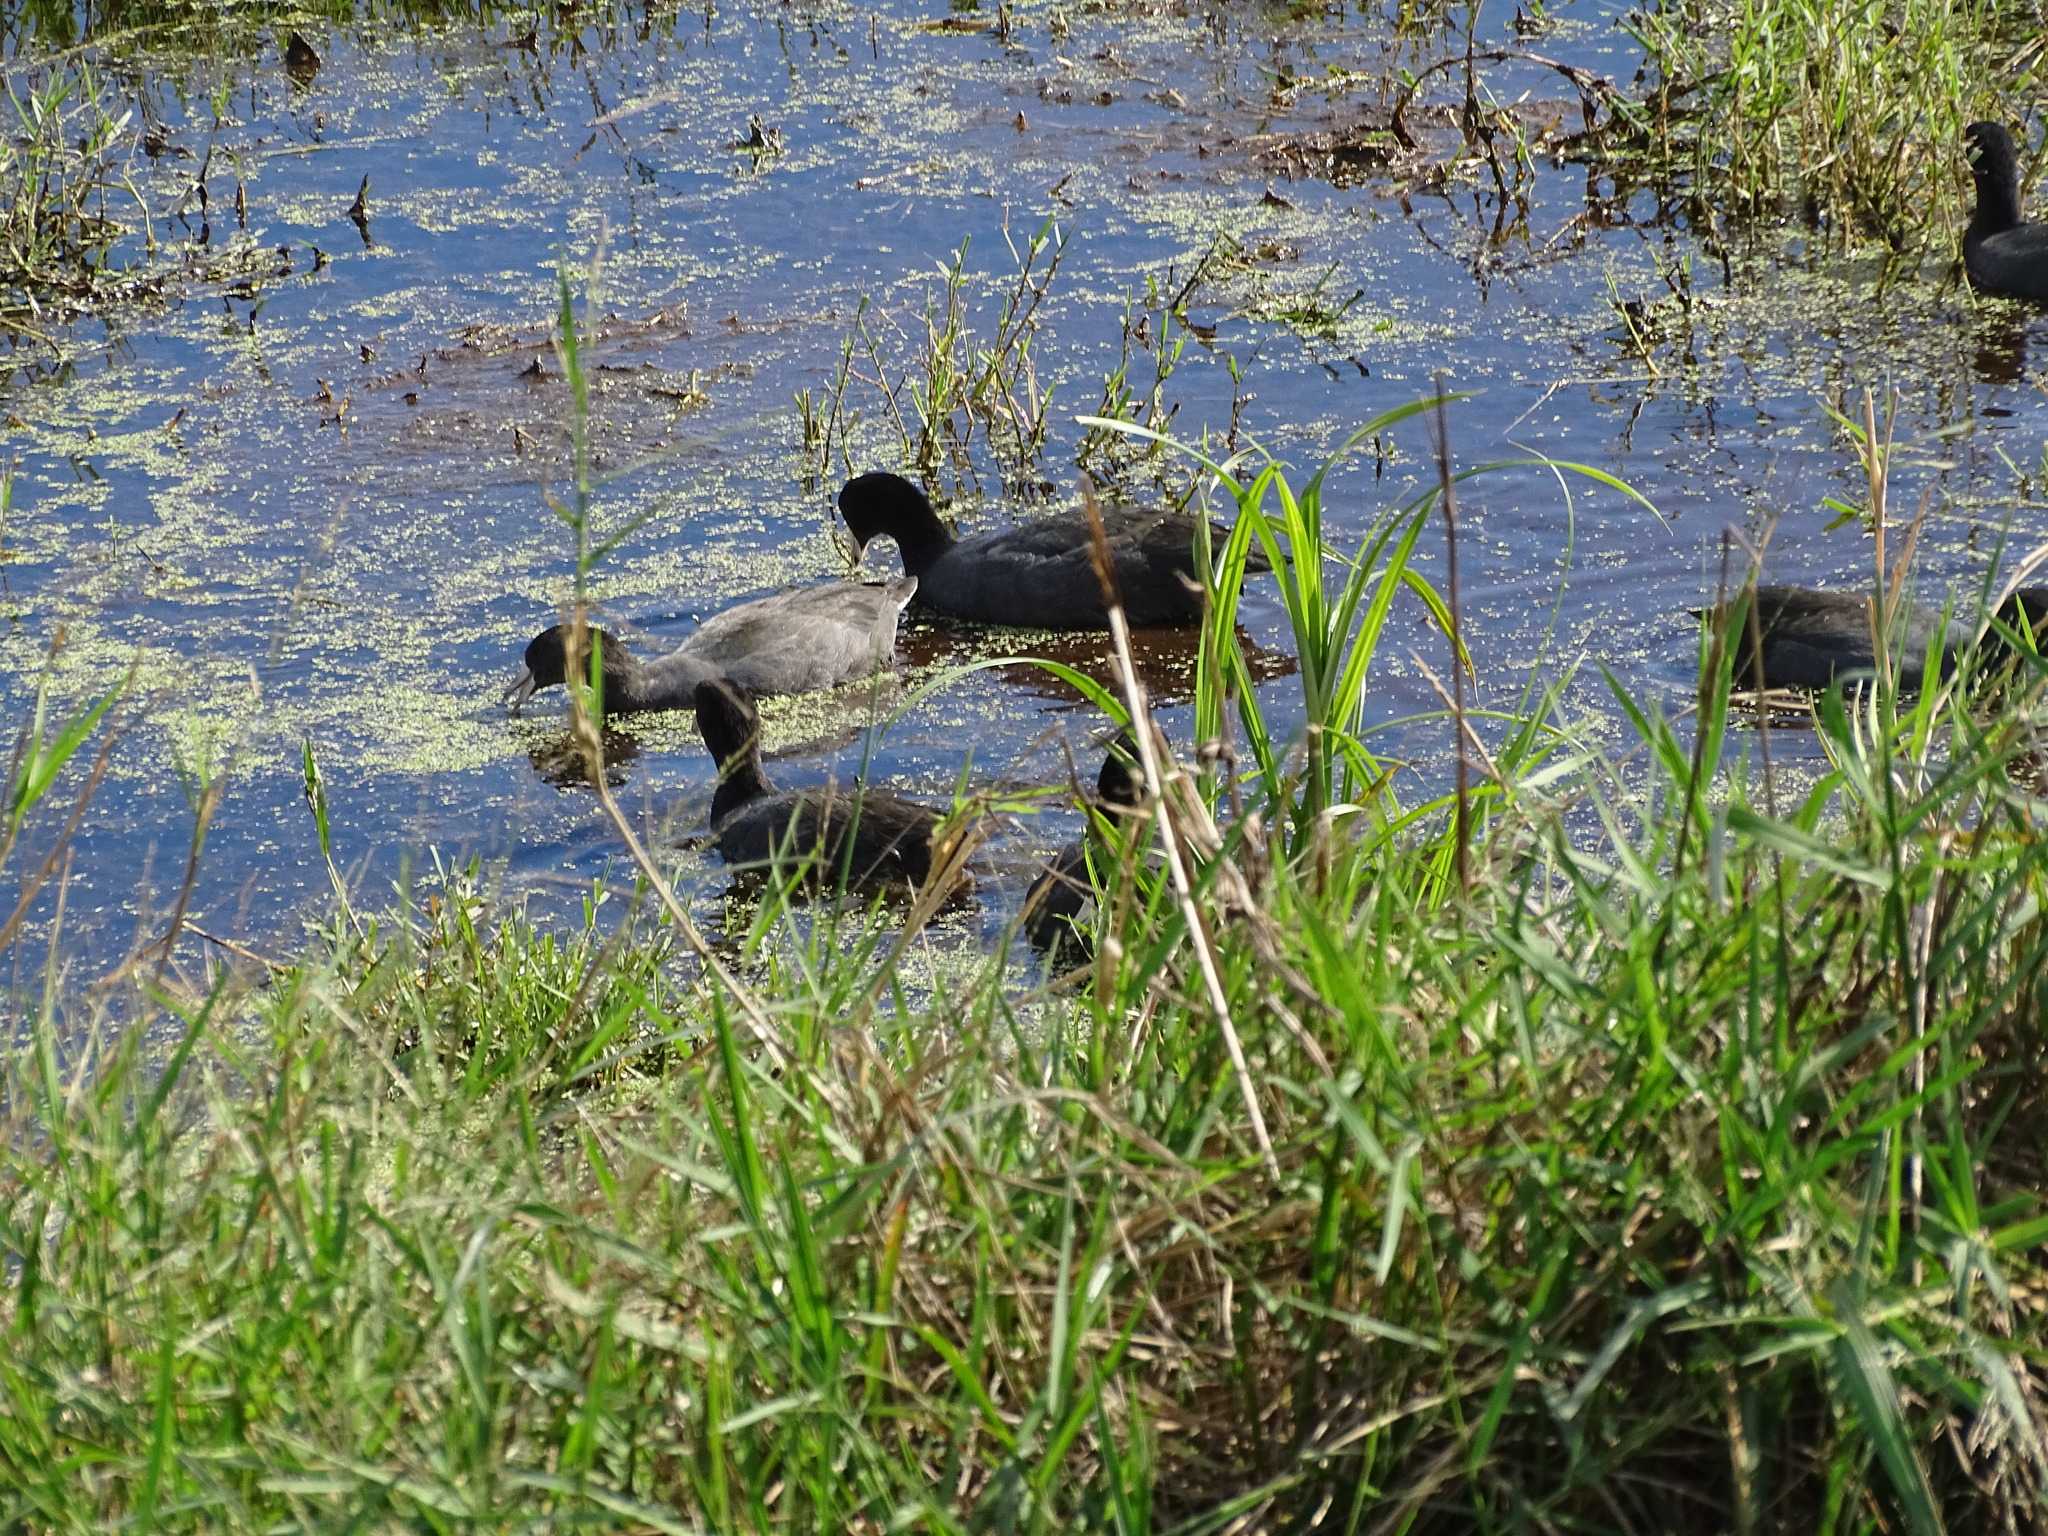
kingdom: Animalia
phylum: Chordata
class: Aves
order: Gruiformes
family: Rallidae
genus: Fulica
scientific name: Fulica americana
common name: American coot
